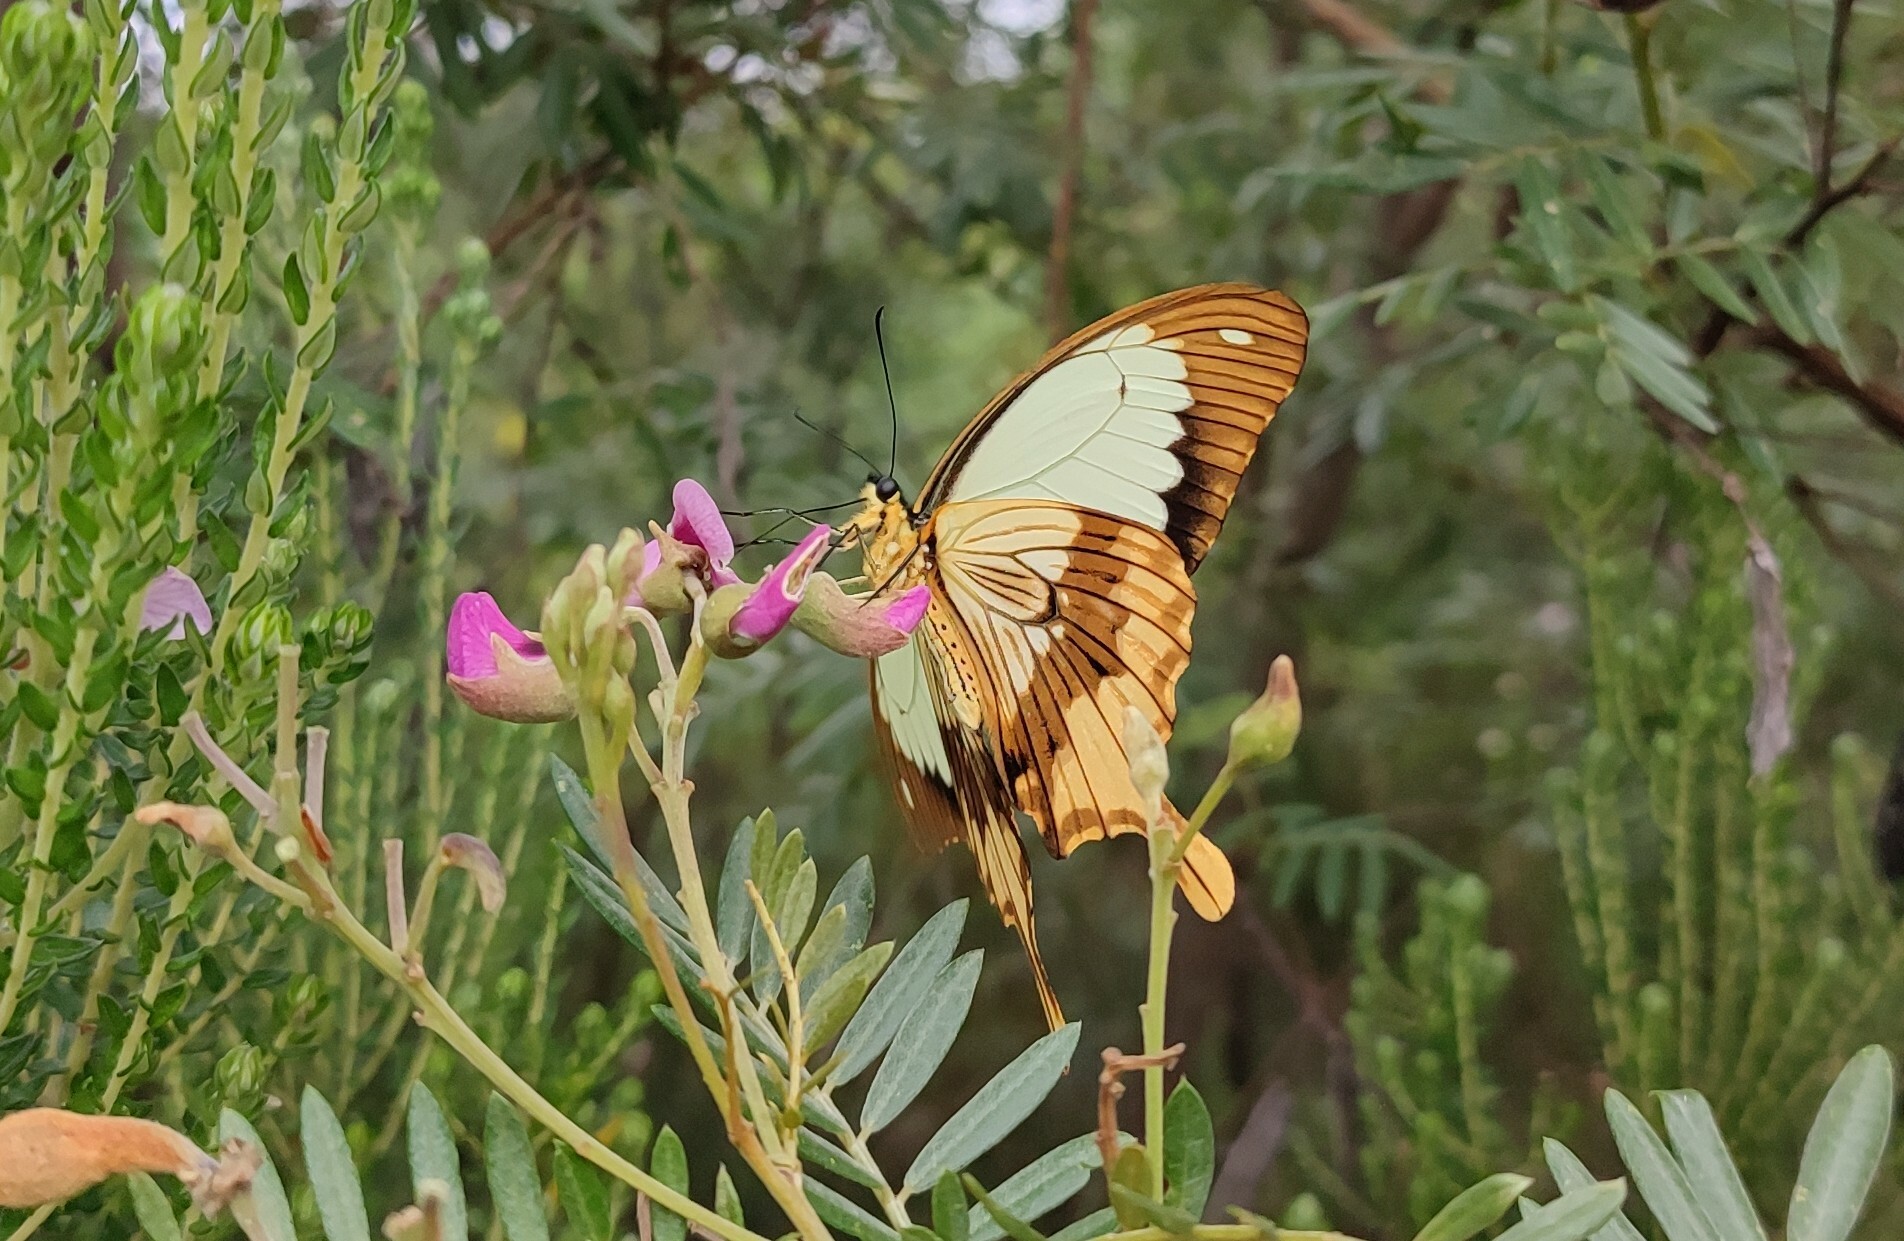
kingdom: Animalia
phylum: Arthropoda
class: Insecta
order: Lepidoptera
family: Papilionidae
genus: Papilio
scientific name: Papilio dardanus
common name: Flying handkerchief
